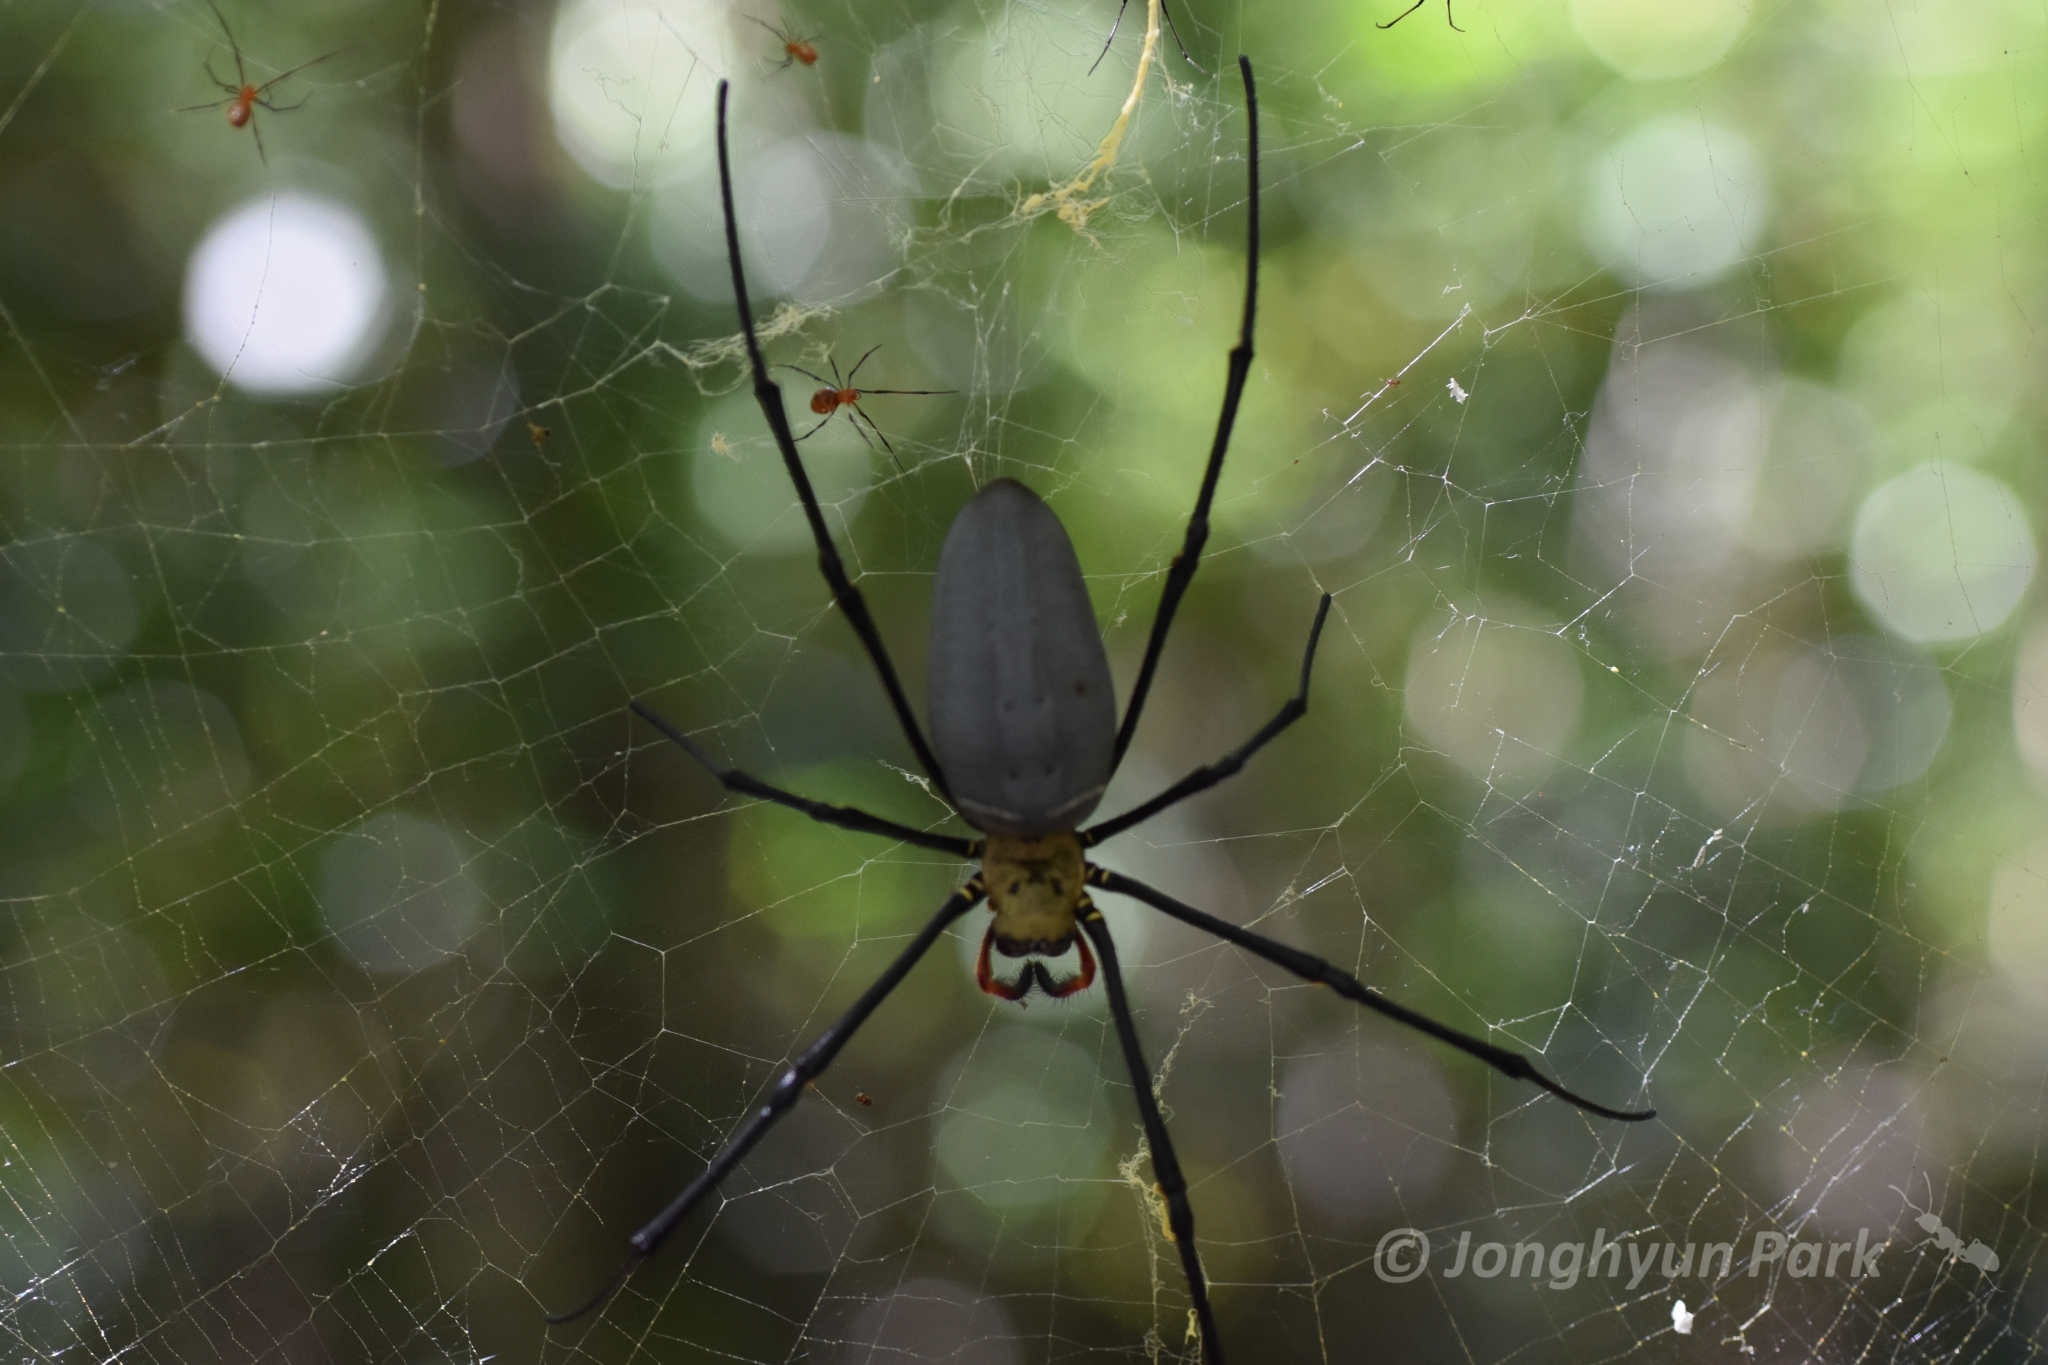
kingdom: Animalia
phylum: Arthropoda
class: Arachnida
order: Araneae
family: Araneidae
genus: Nephila
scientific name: Nephila pilipes
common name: Giant golden orb weaver
